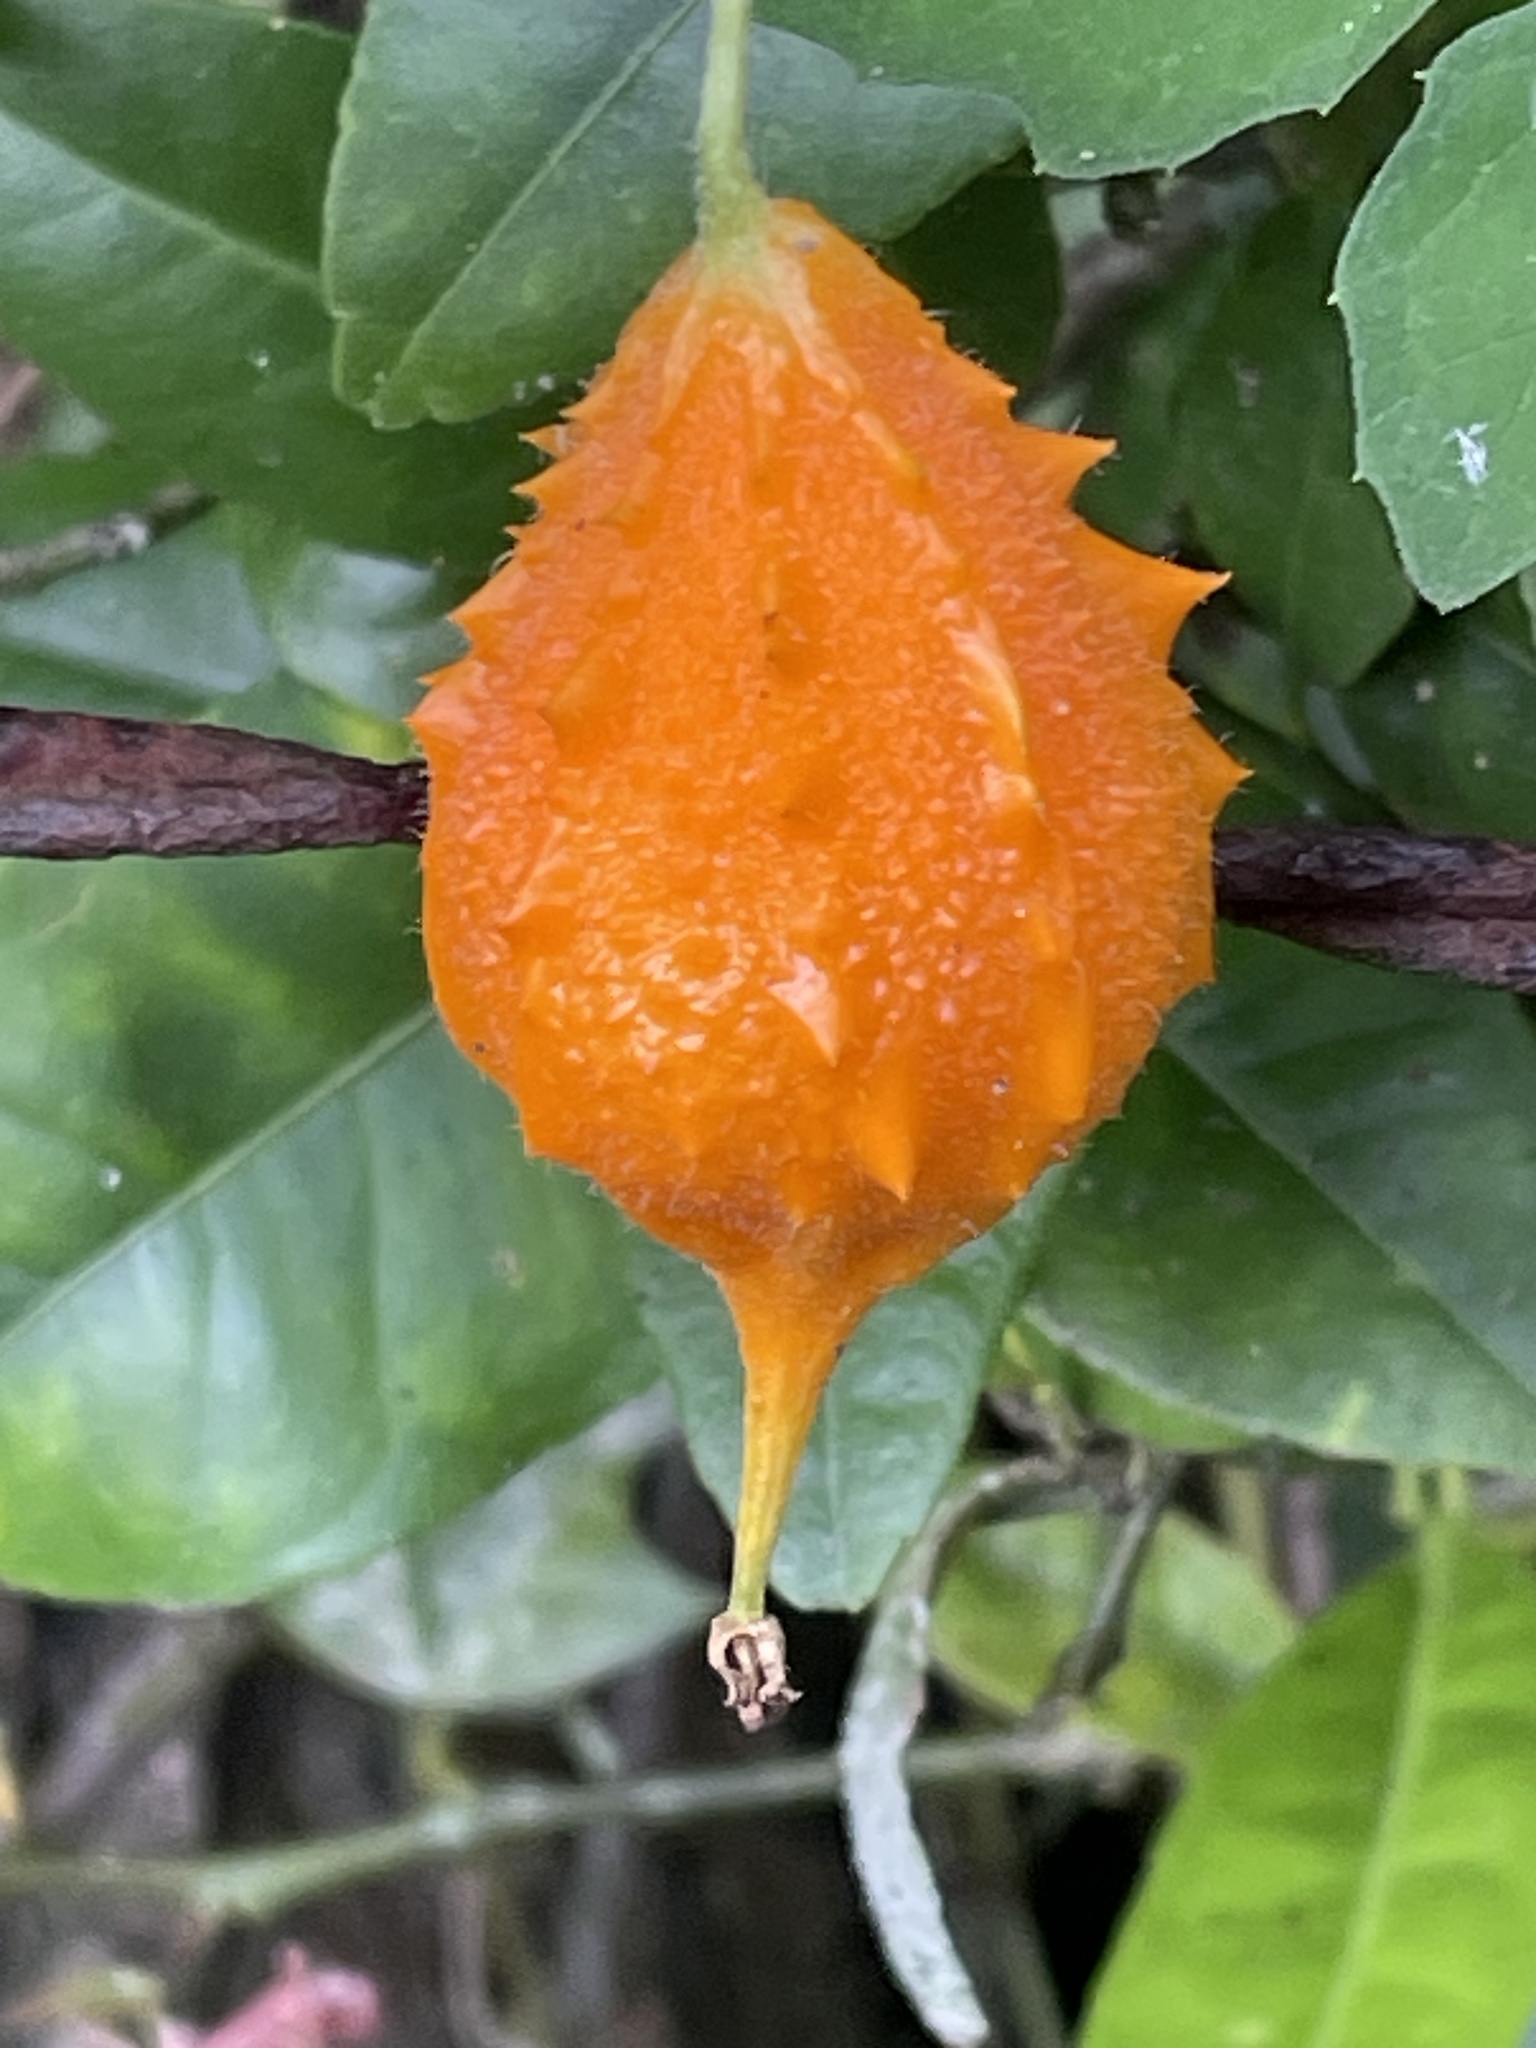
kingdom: Plantae
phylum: Tracheophyta
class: Magnoliopsida
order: Cucurbitales
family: Cucurbitaceae
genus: Momordica
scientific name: Momordica charantia
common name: Balsampear
